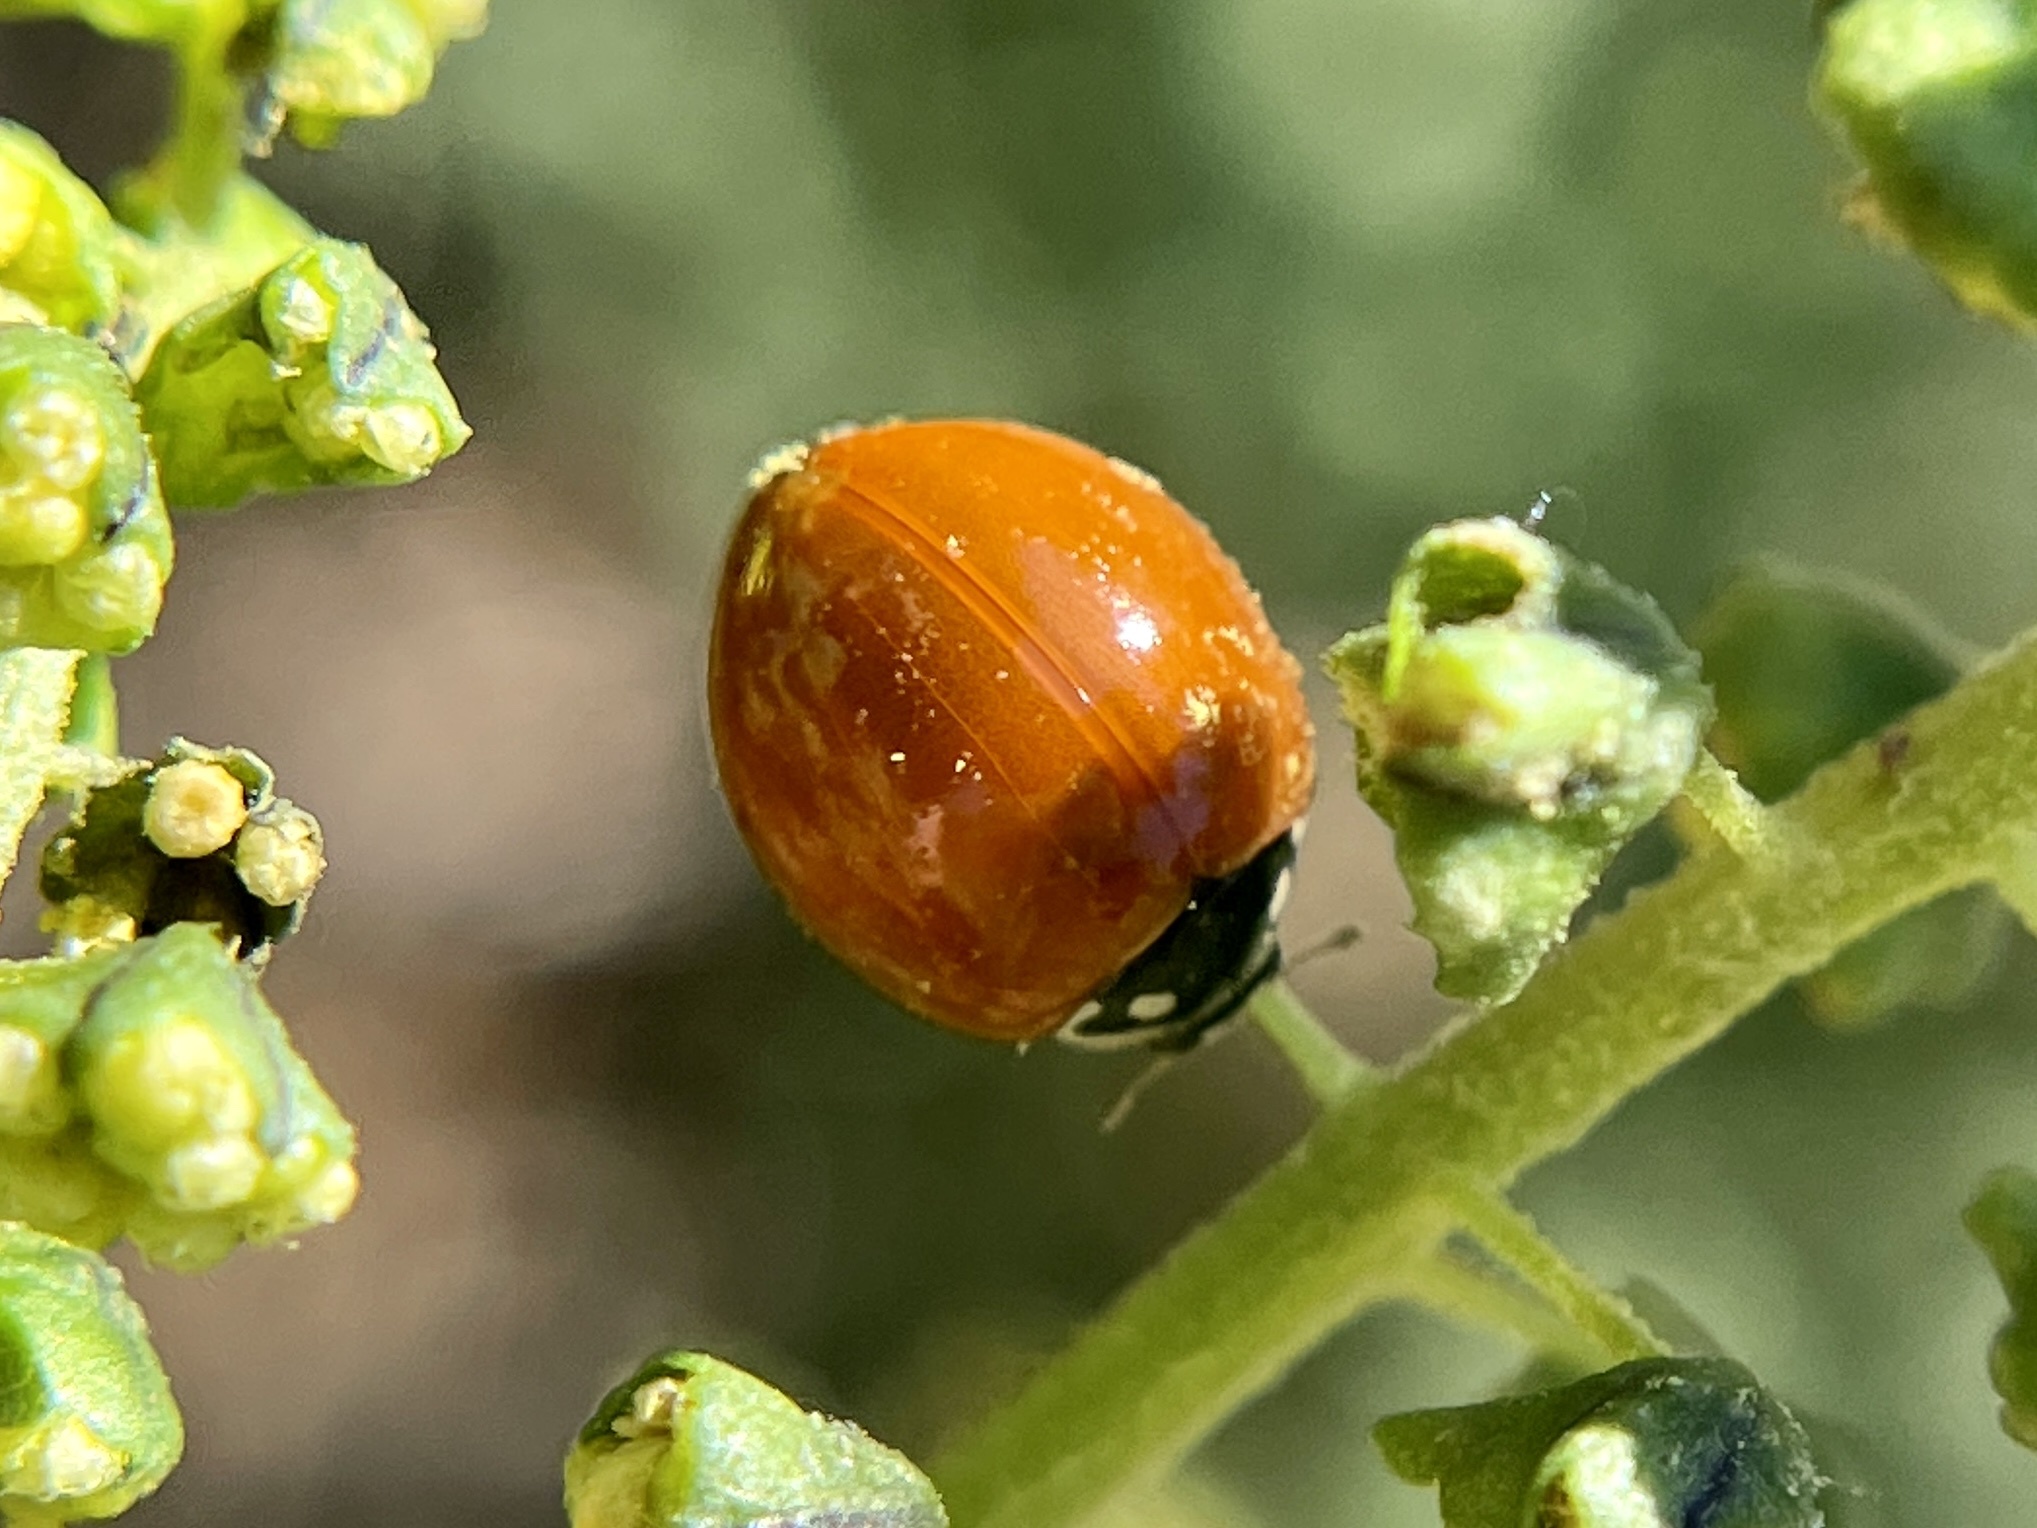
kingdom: Animalia
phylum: Arthropoda
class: Insecta
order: Coleoptera
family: Coccinellidae
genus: Cycloneda
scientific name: Cycloneda sanguinea
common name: Ladybird beetle
